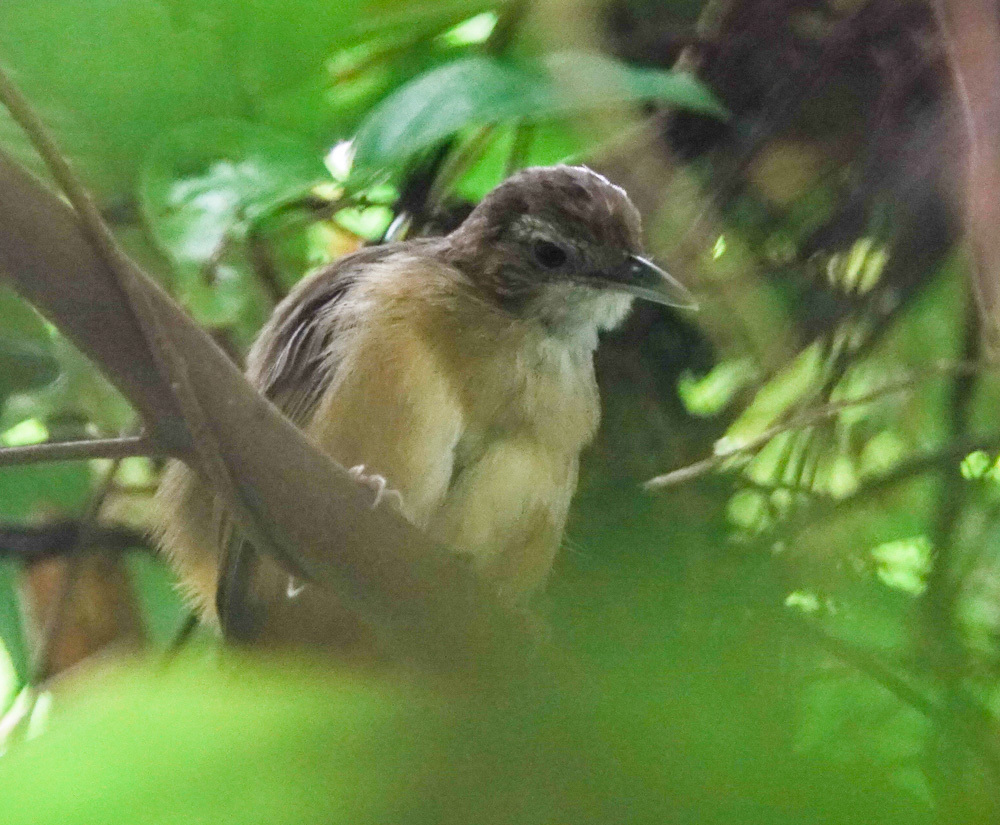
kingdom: Animalia
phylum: Chordata
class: Aves
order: Passeriformes
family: Pellorneidae
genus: Malacocincla
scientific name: Malacocincla abbotti
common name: Abbott's babbler
